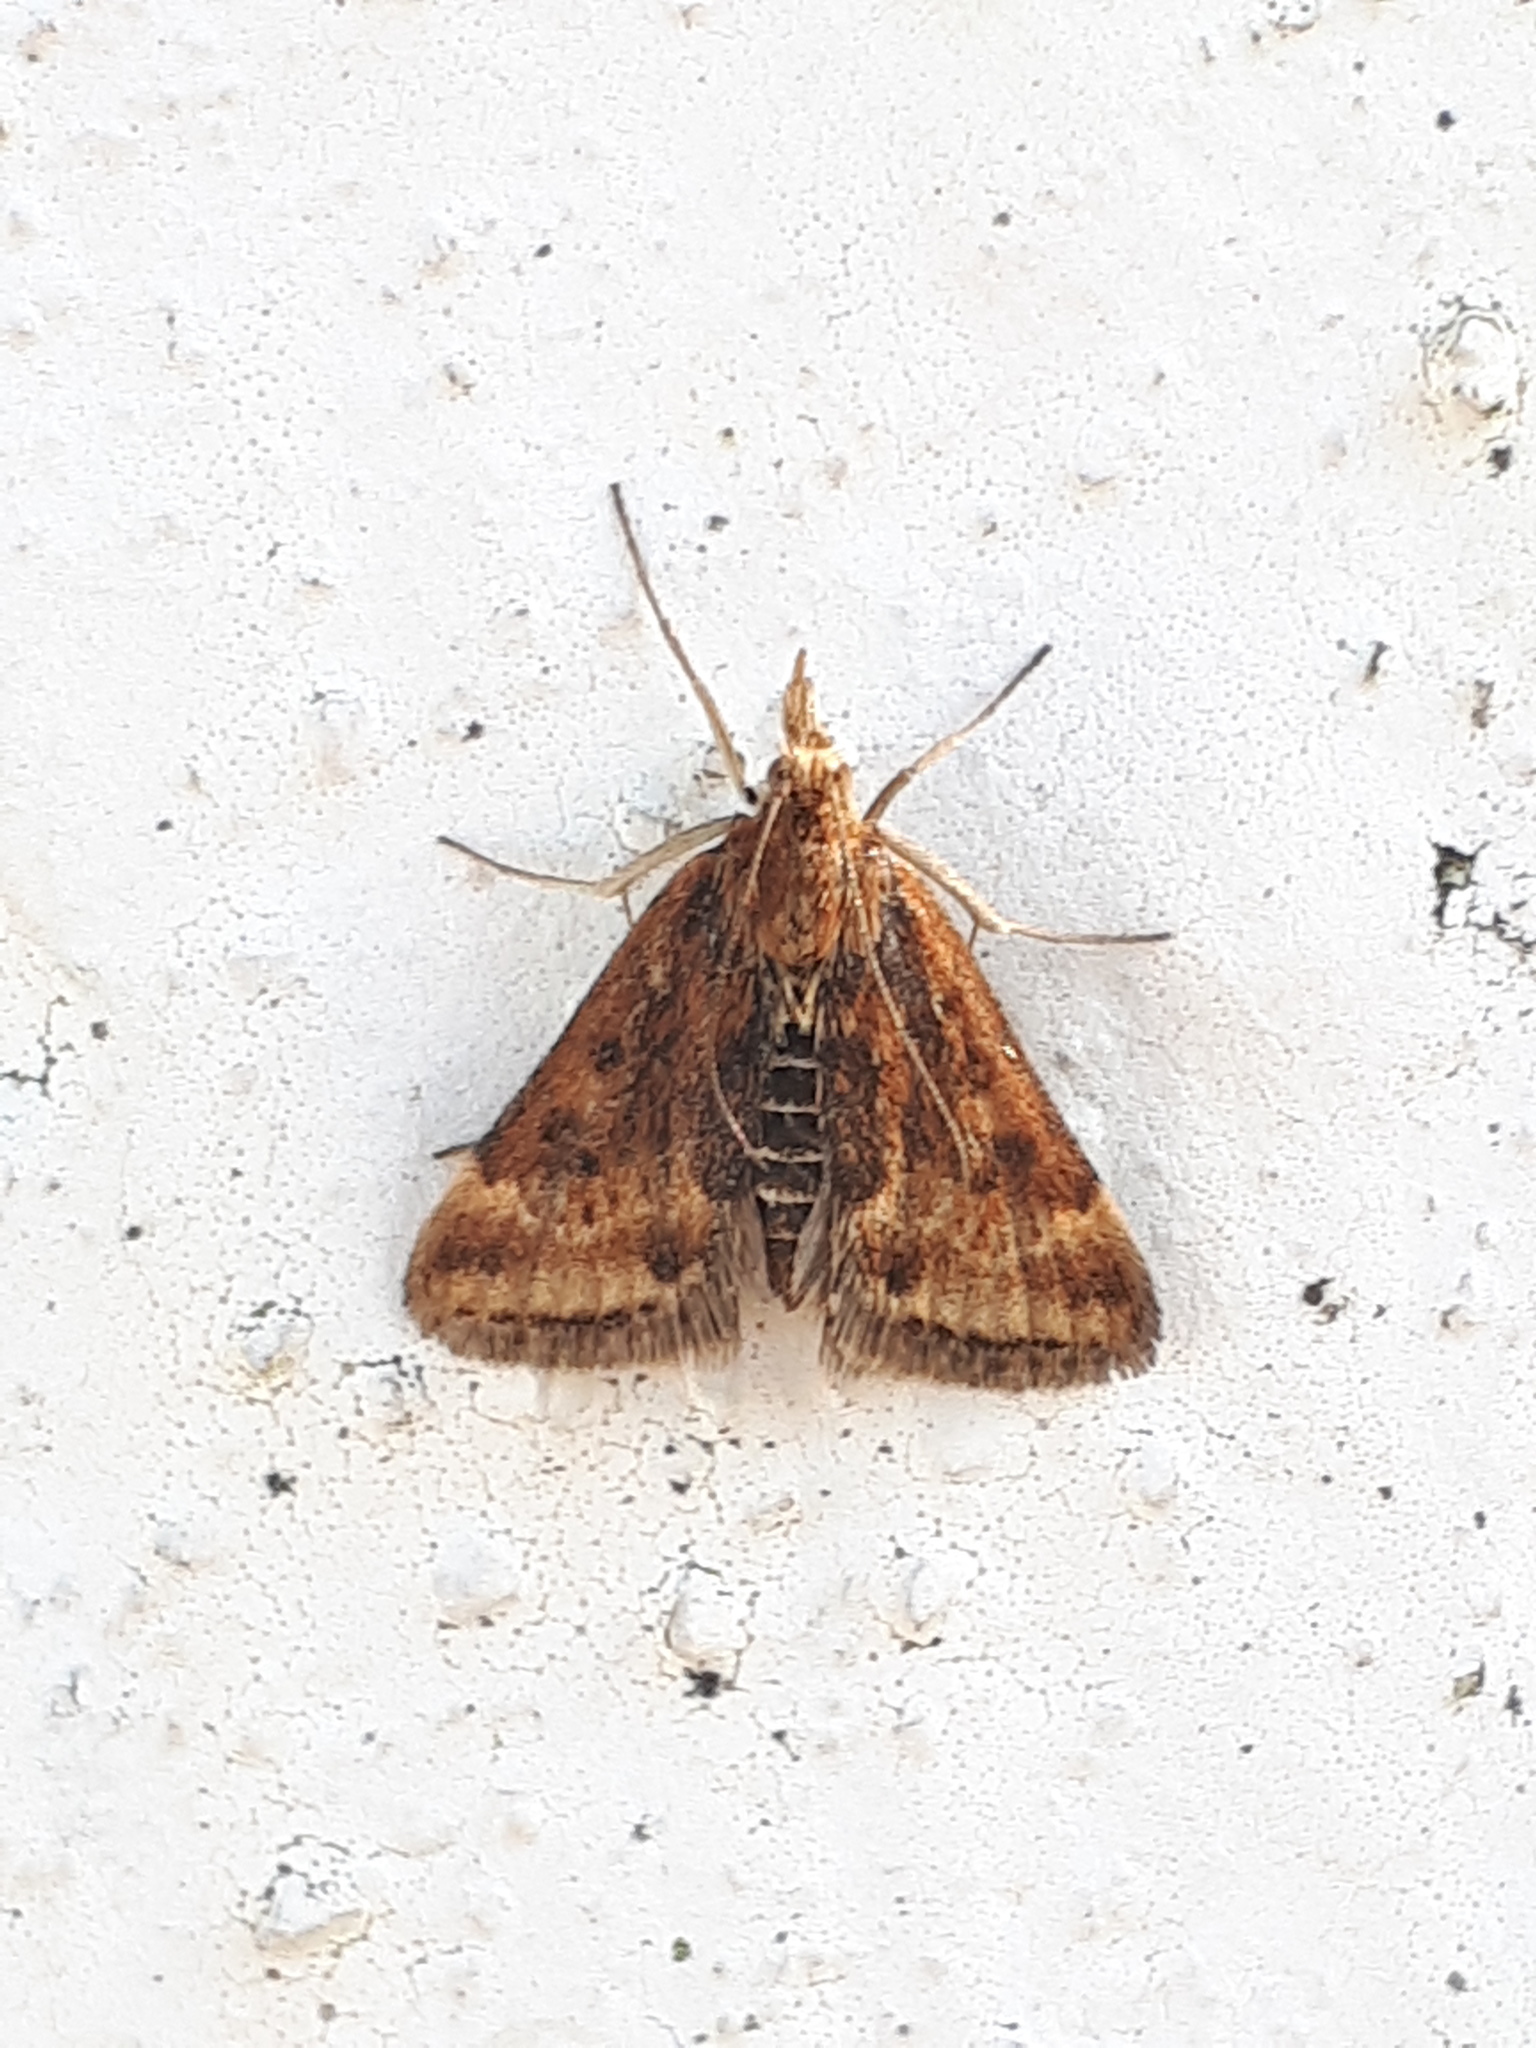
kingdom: Animalia
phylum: Arthropoda
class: Insecta
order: Lepidoptera
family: Crambidae
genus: Pyrausta
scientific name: Pyrausta despicata
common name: Straw-barred pearl
